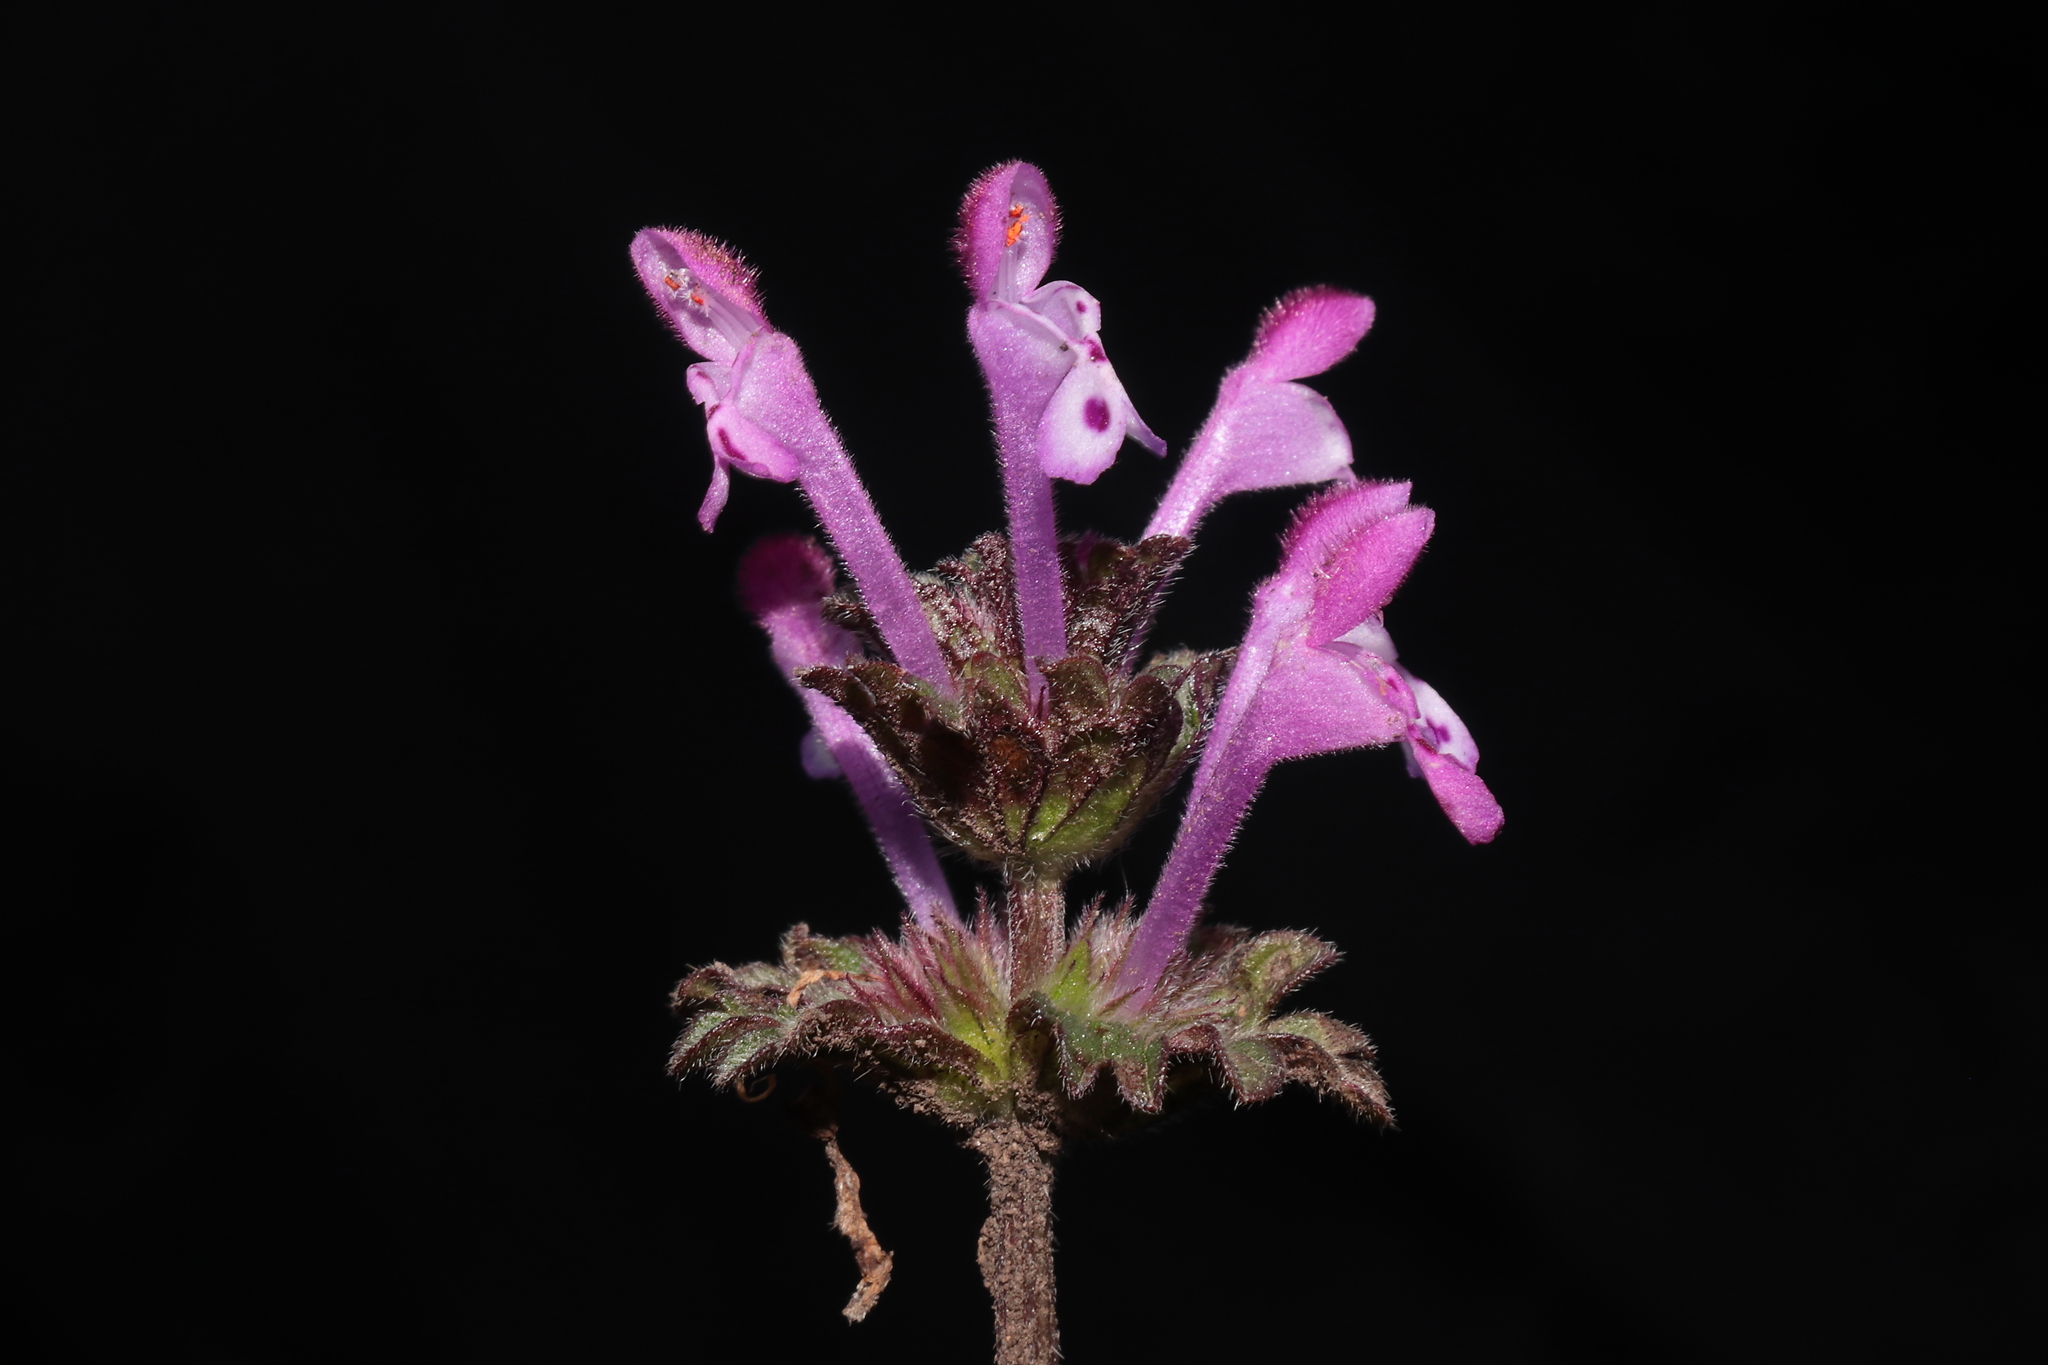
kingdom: Plantae
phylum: Tracheophyta
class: Magnoliopsida
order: Lamiales
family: Lamiaceae
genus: Lamium
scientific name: Lamium amplexicaule
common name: Henbit dead-nettle
